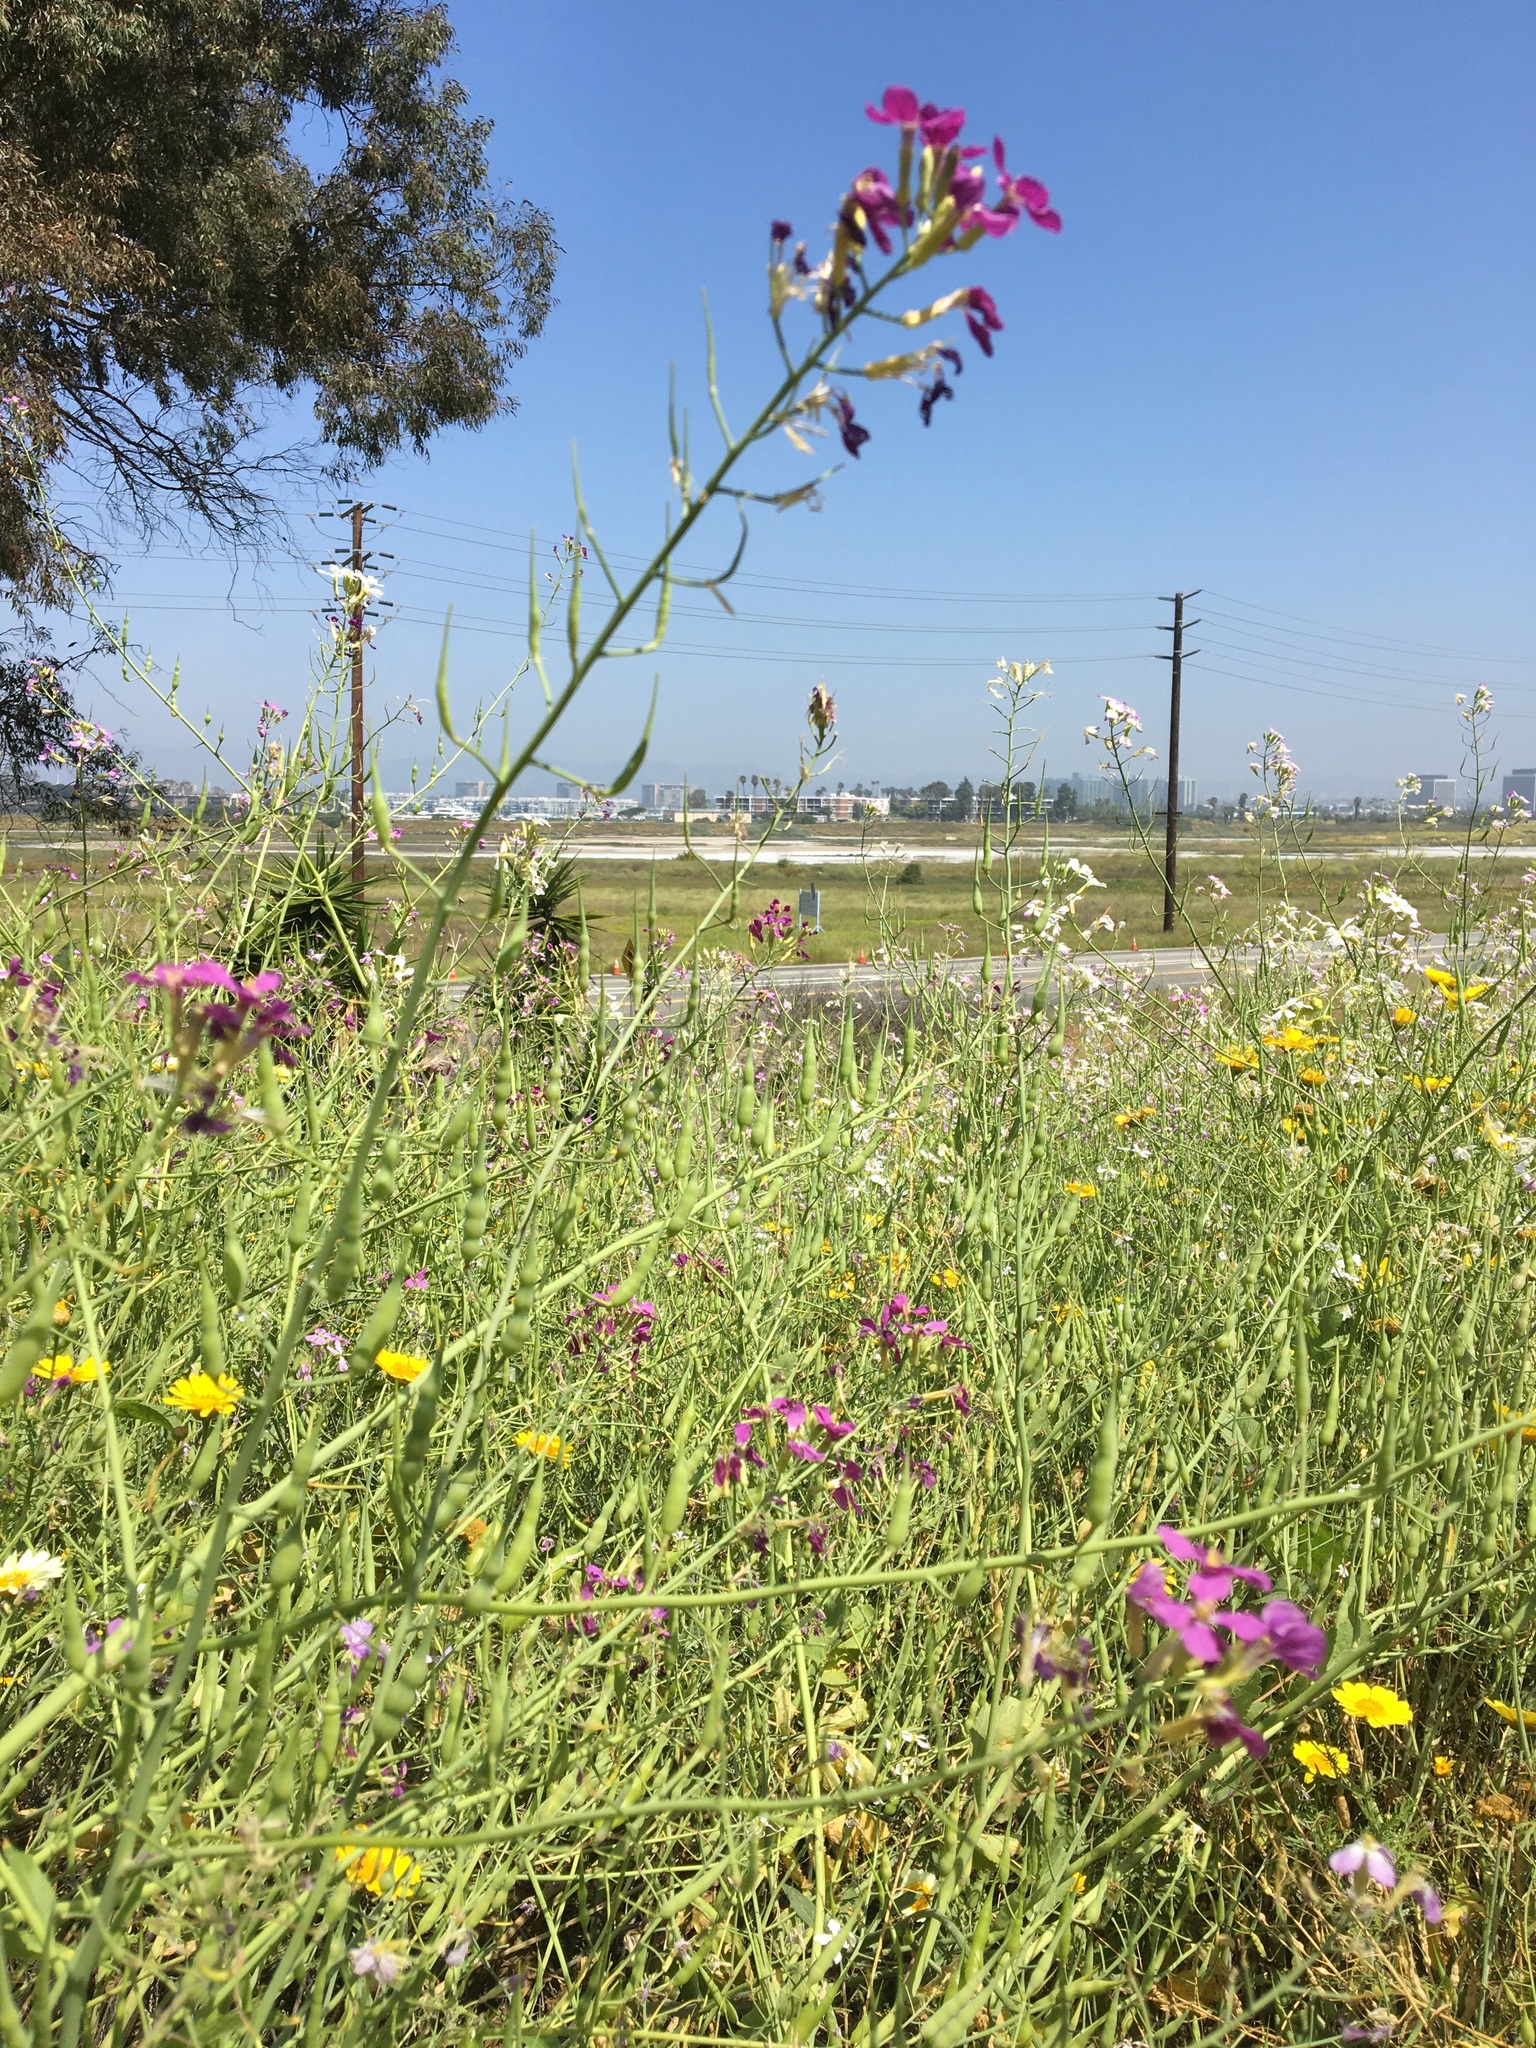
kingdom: Plantae
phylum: Tracheophyta
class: Magnoliopsida
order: Brassicales
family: Brassicaceae
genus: Raphanus
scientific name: Raphanus sativus
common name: Cultivated radish
